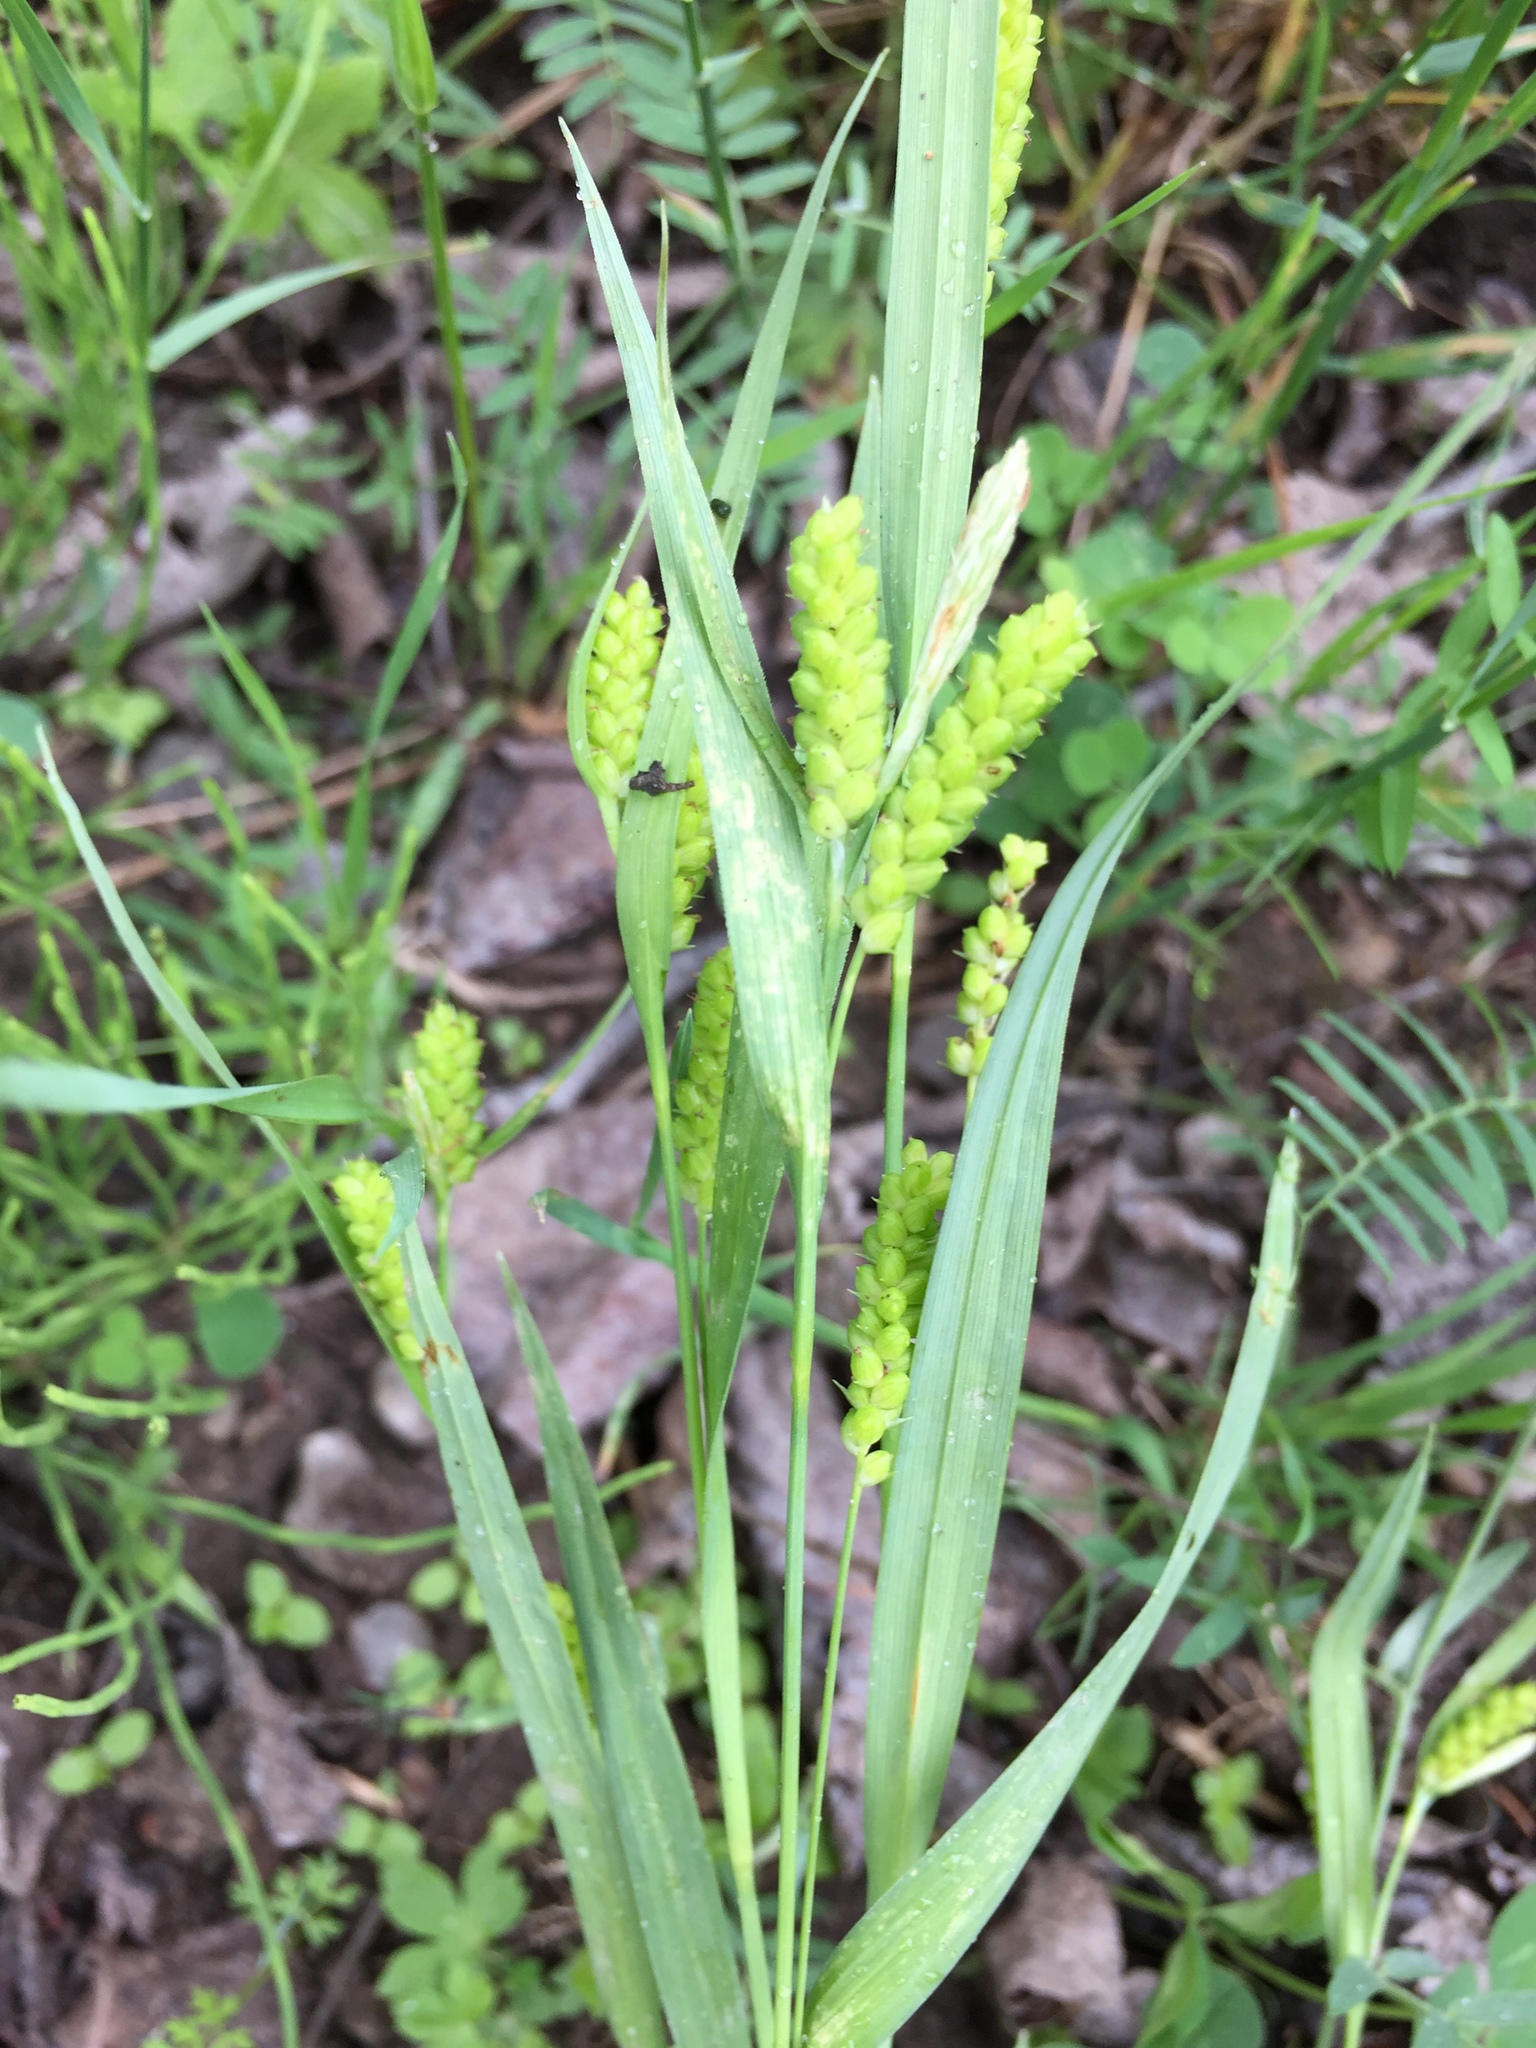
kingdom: Plantae
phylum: Tracheophyta
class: Liliopsida
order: Poales
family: Cyperaceae
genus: Carex
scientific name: Carex granularis
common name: Granular sedge
